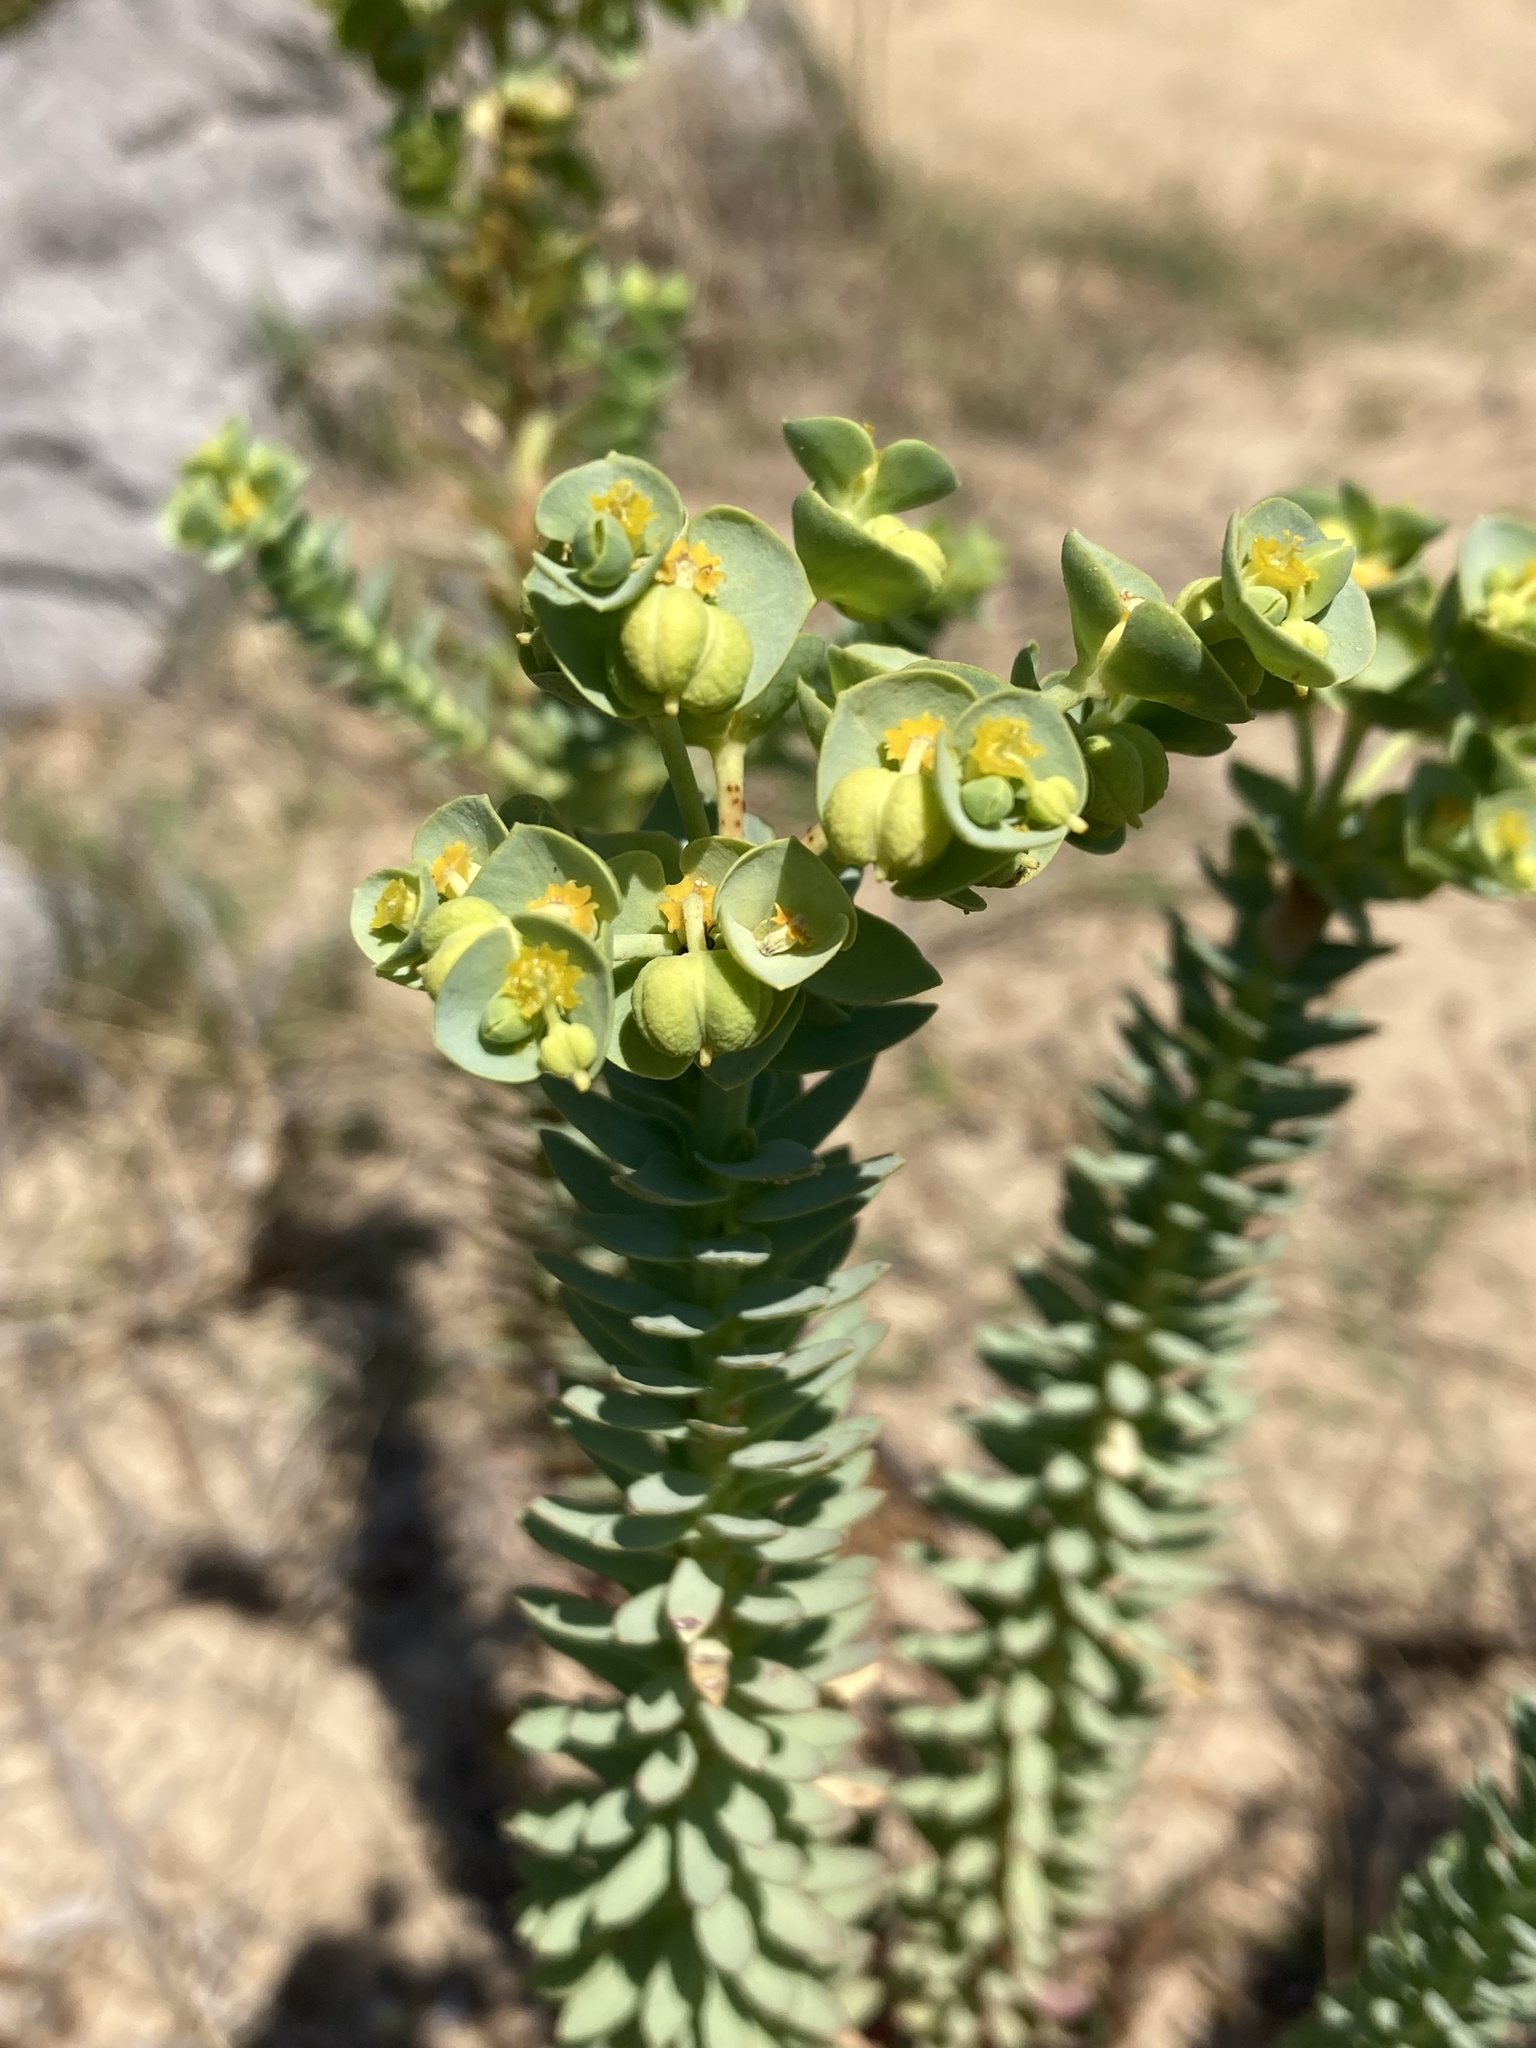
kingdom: Plantae
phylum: Tracheophyta
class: Magnoliopsida
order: Malpighiales
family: Euphorbiaceae
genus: Euphorbia
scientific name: Euphorbia paralias
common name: Sea spurge
